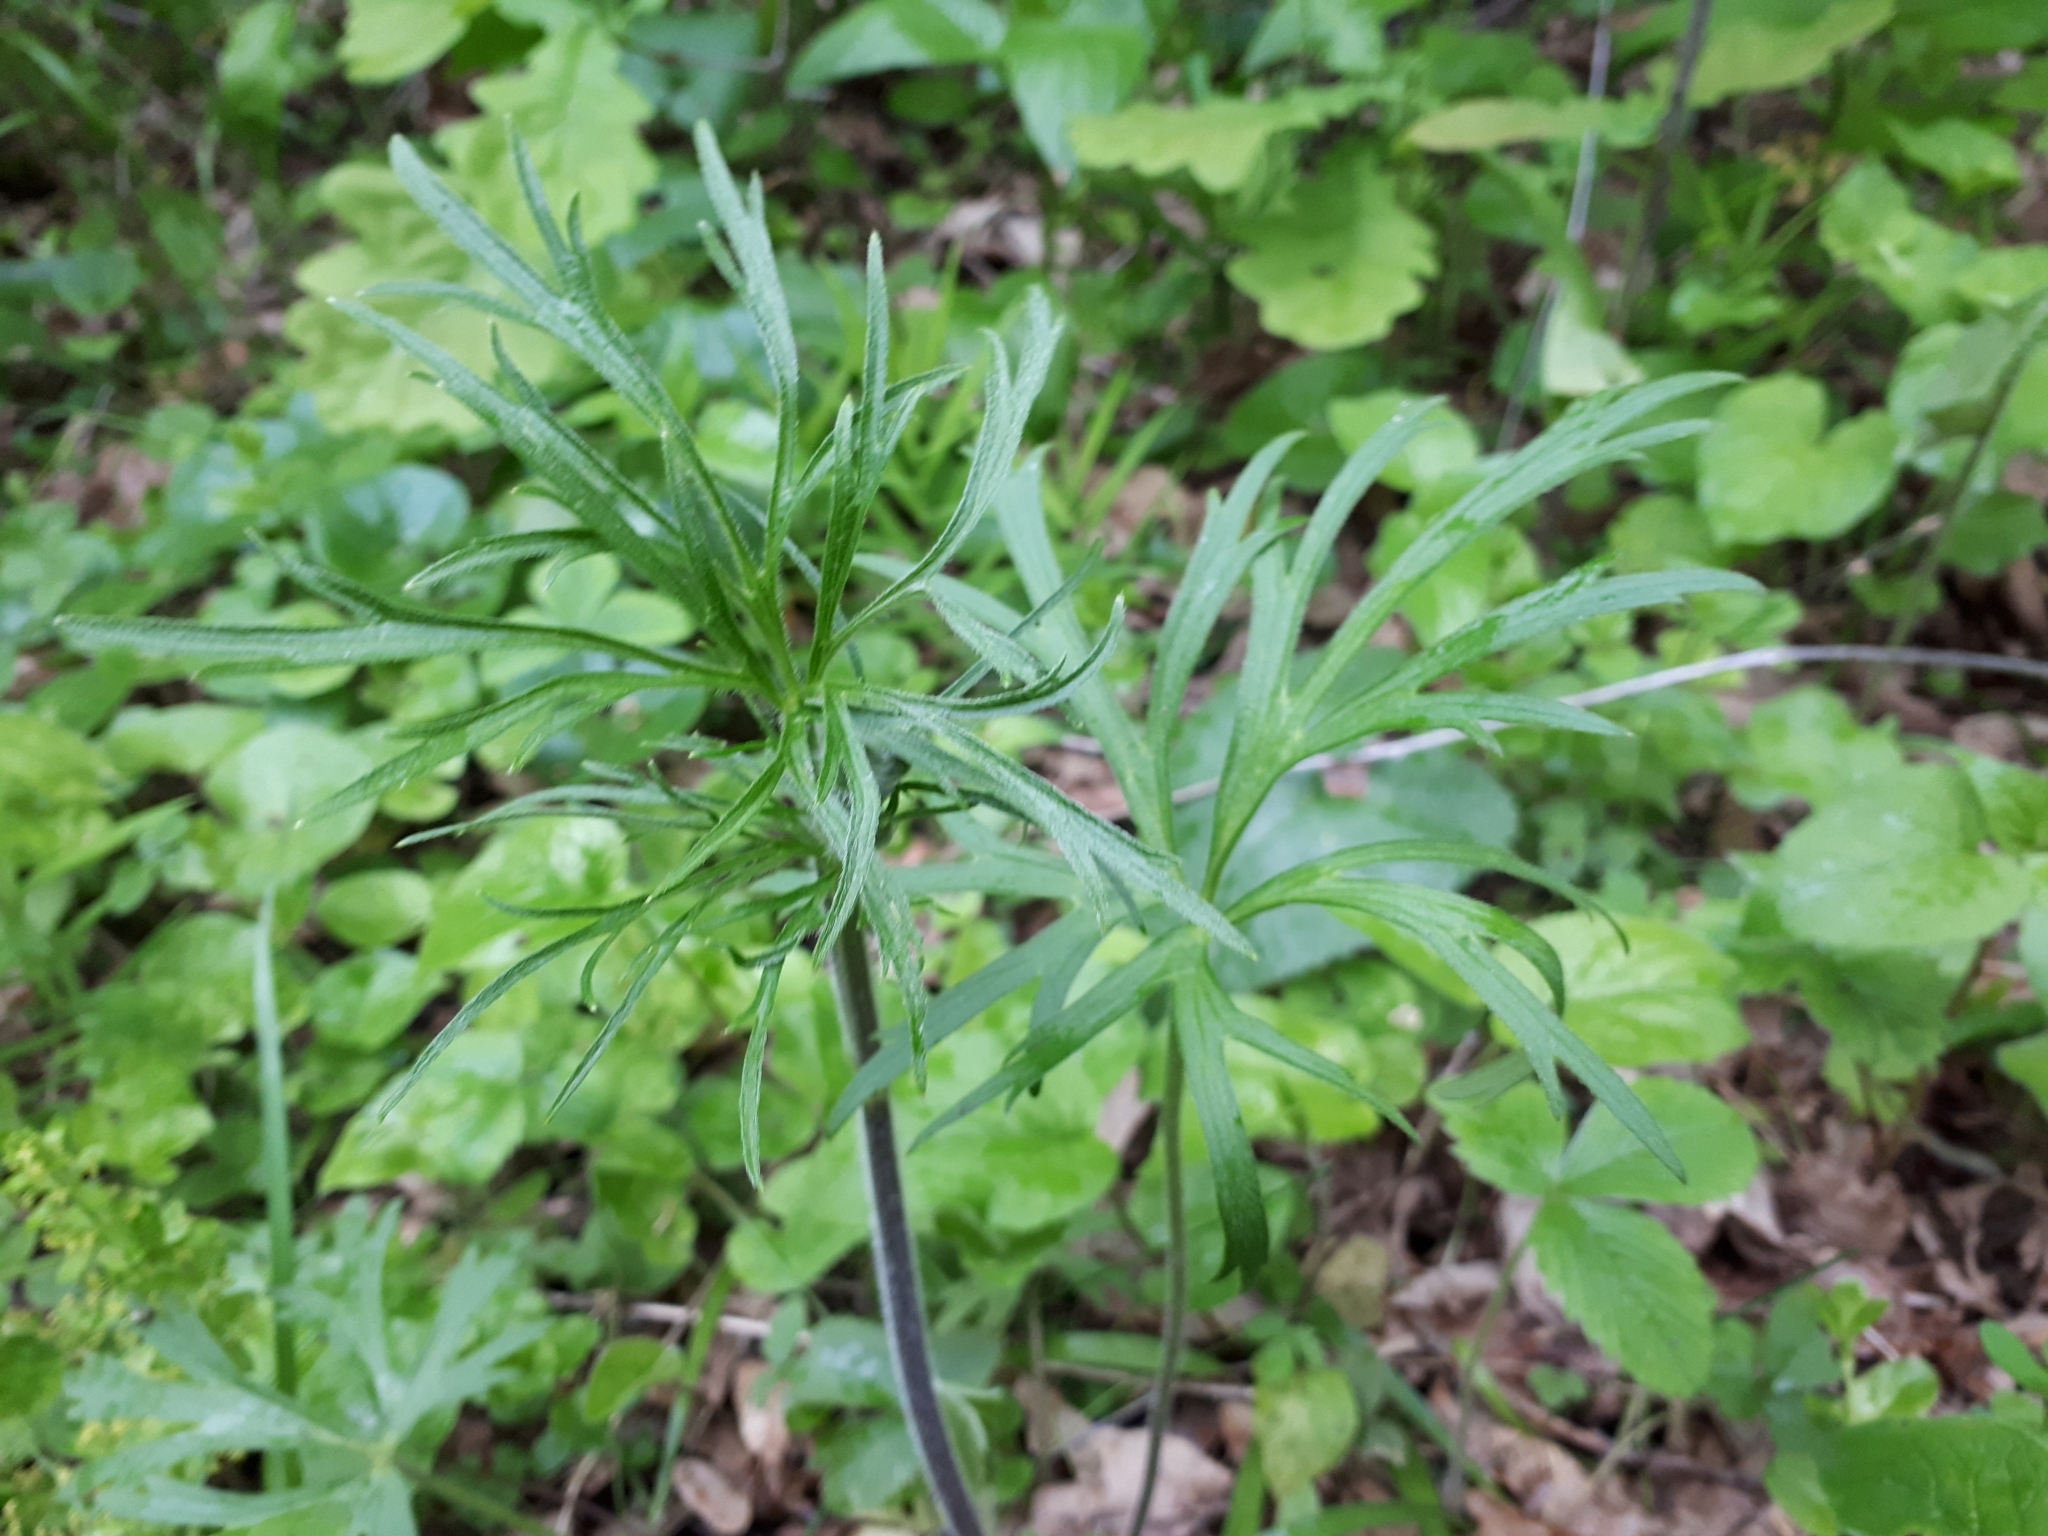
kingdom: Plantae
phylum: Tracheophyta
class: Magnoliopsida
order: Ranunculales
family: Ranunculaceae
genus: Ranunculus
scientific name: Ranunculus polyanthemos
